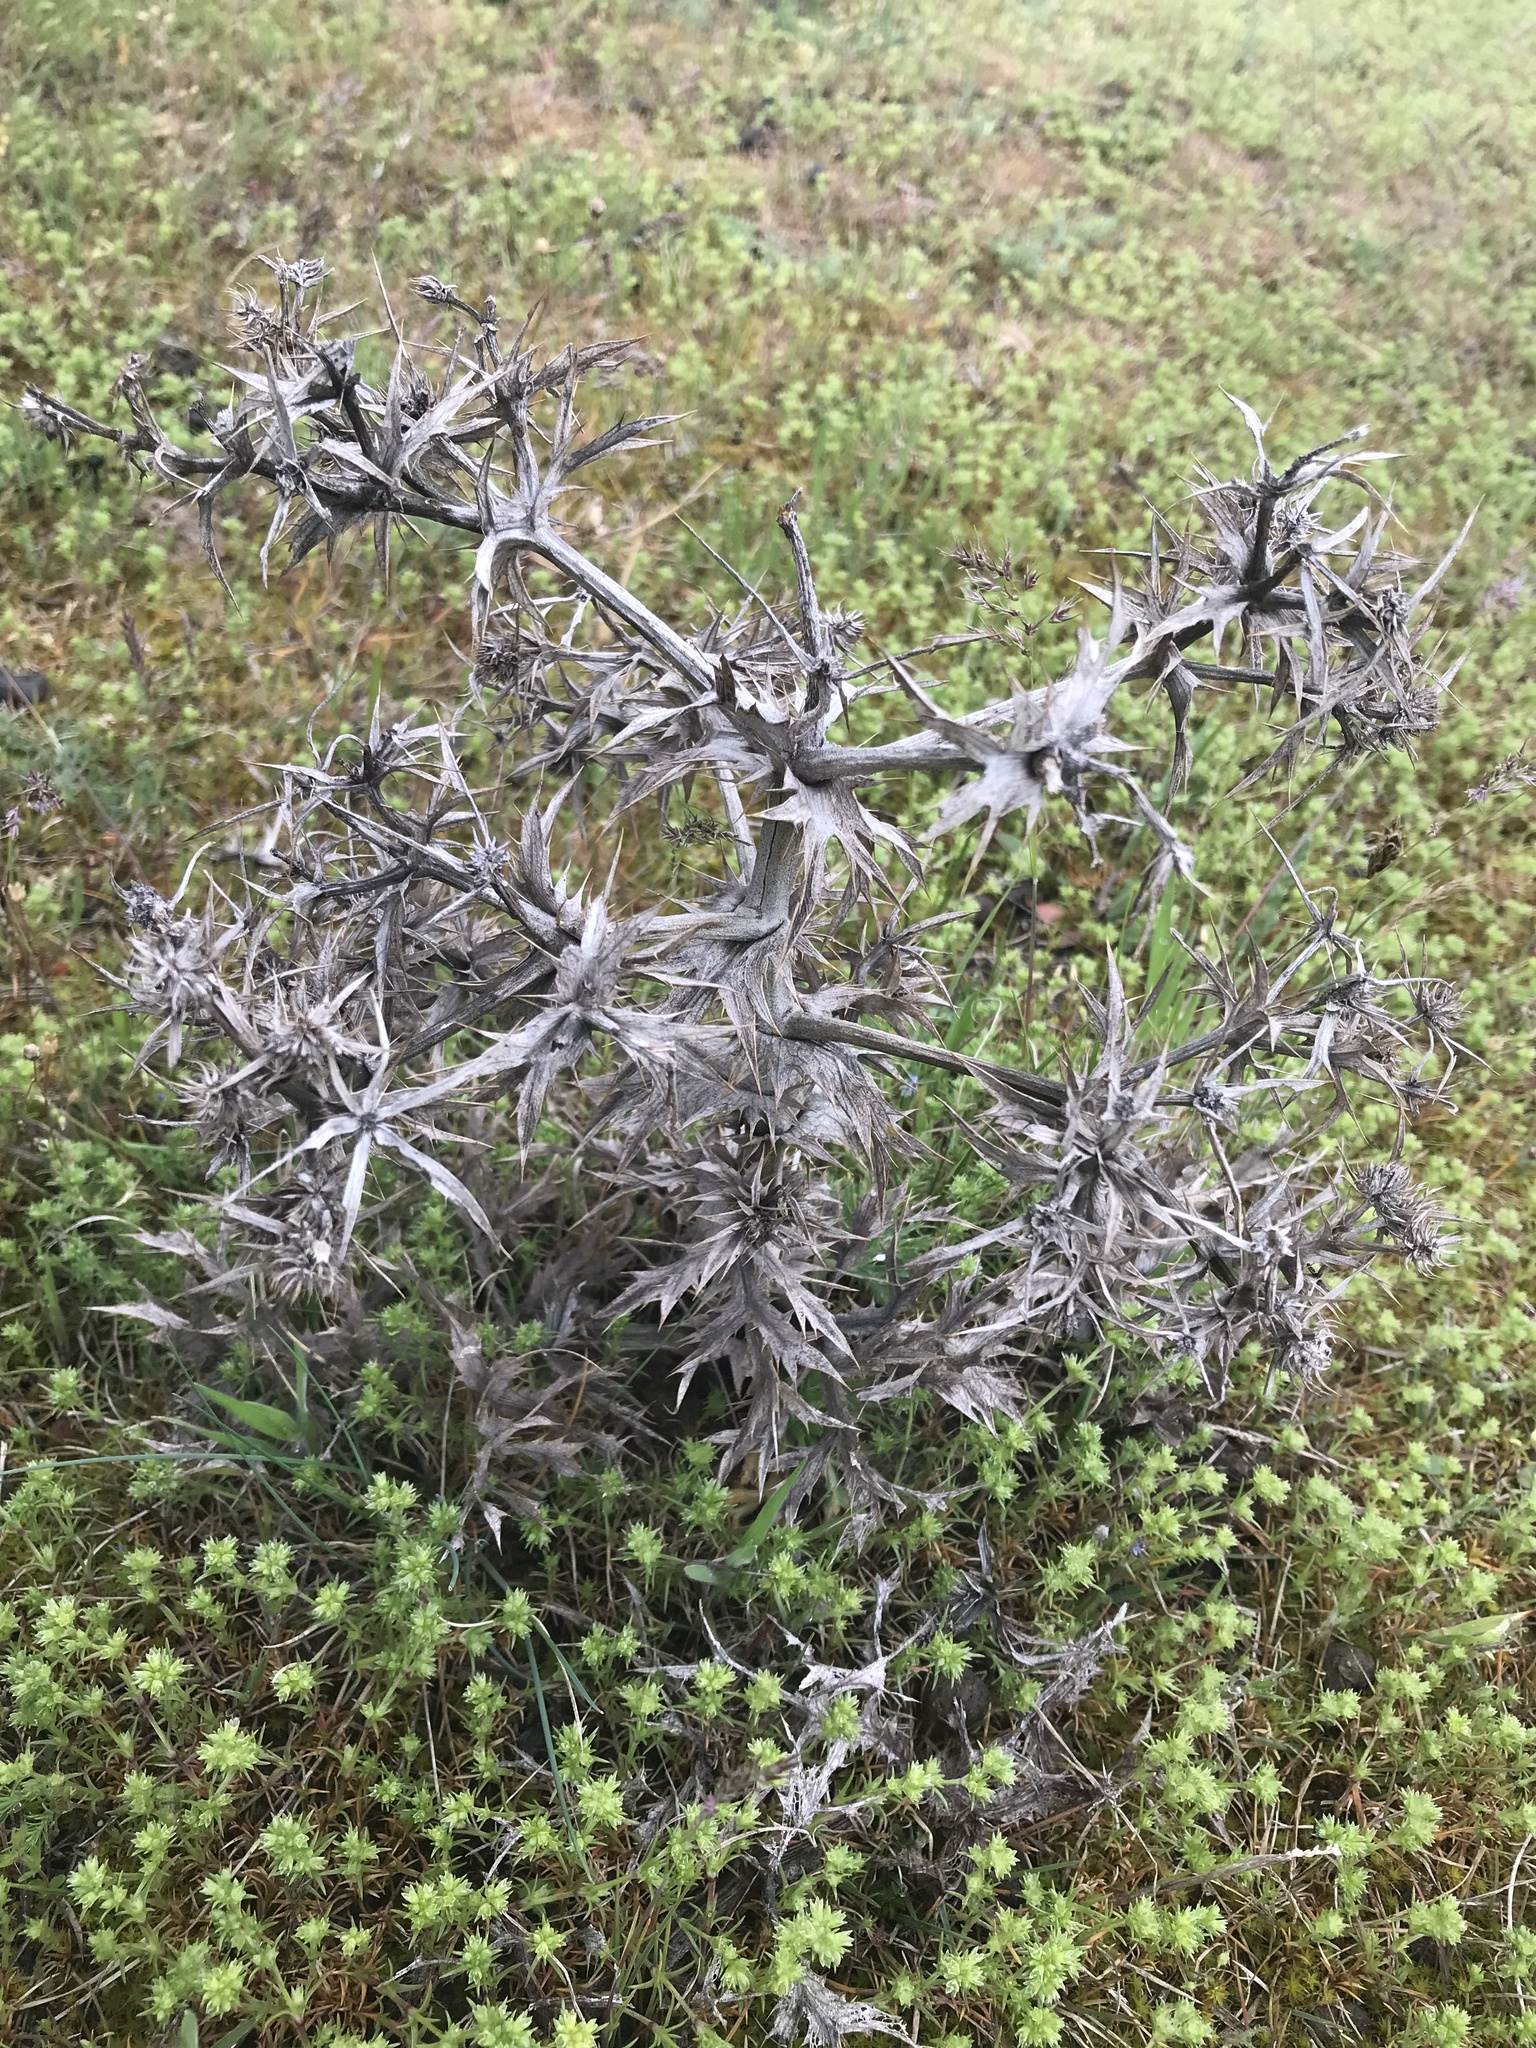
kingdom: Plantae
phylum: Tracheophyta
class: Magnoliopsida
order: Apiales
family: Apiaceae
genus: Eryngium
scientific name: Eryngium campestre
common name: Field eryngo
